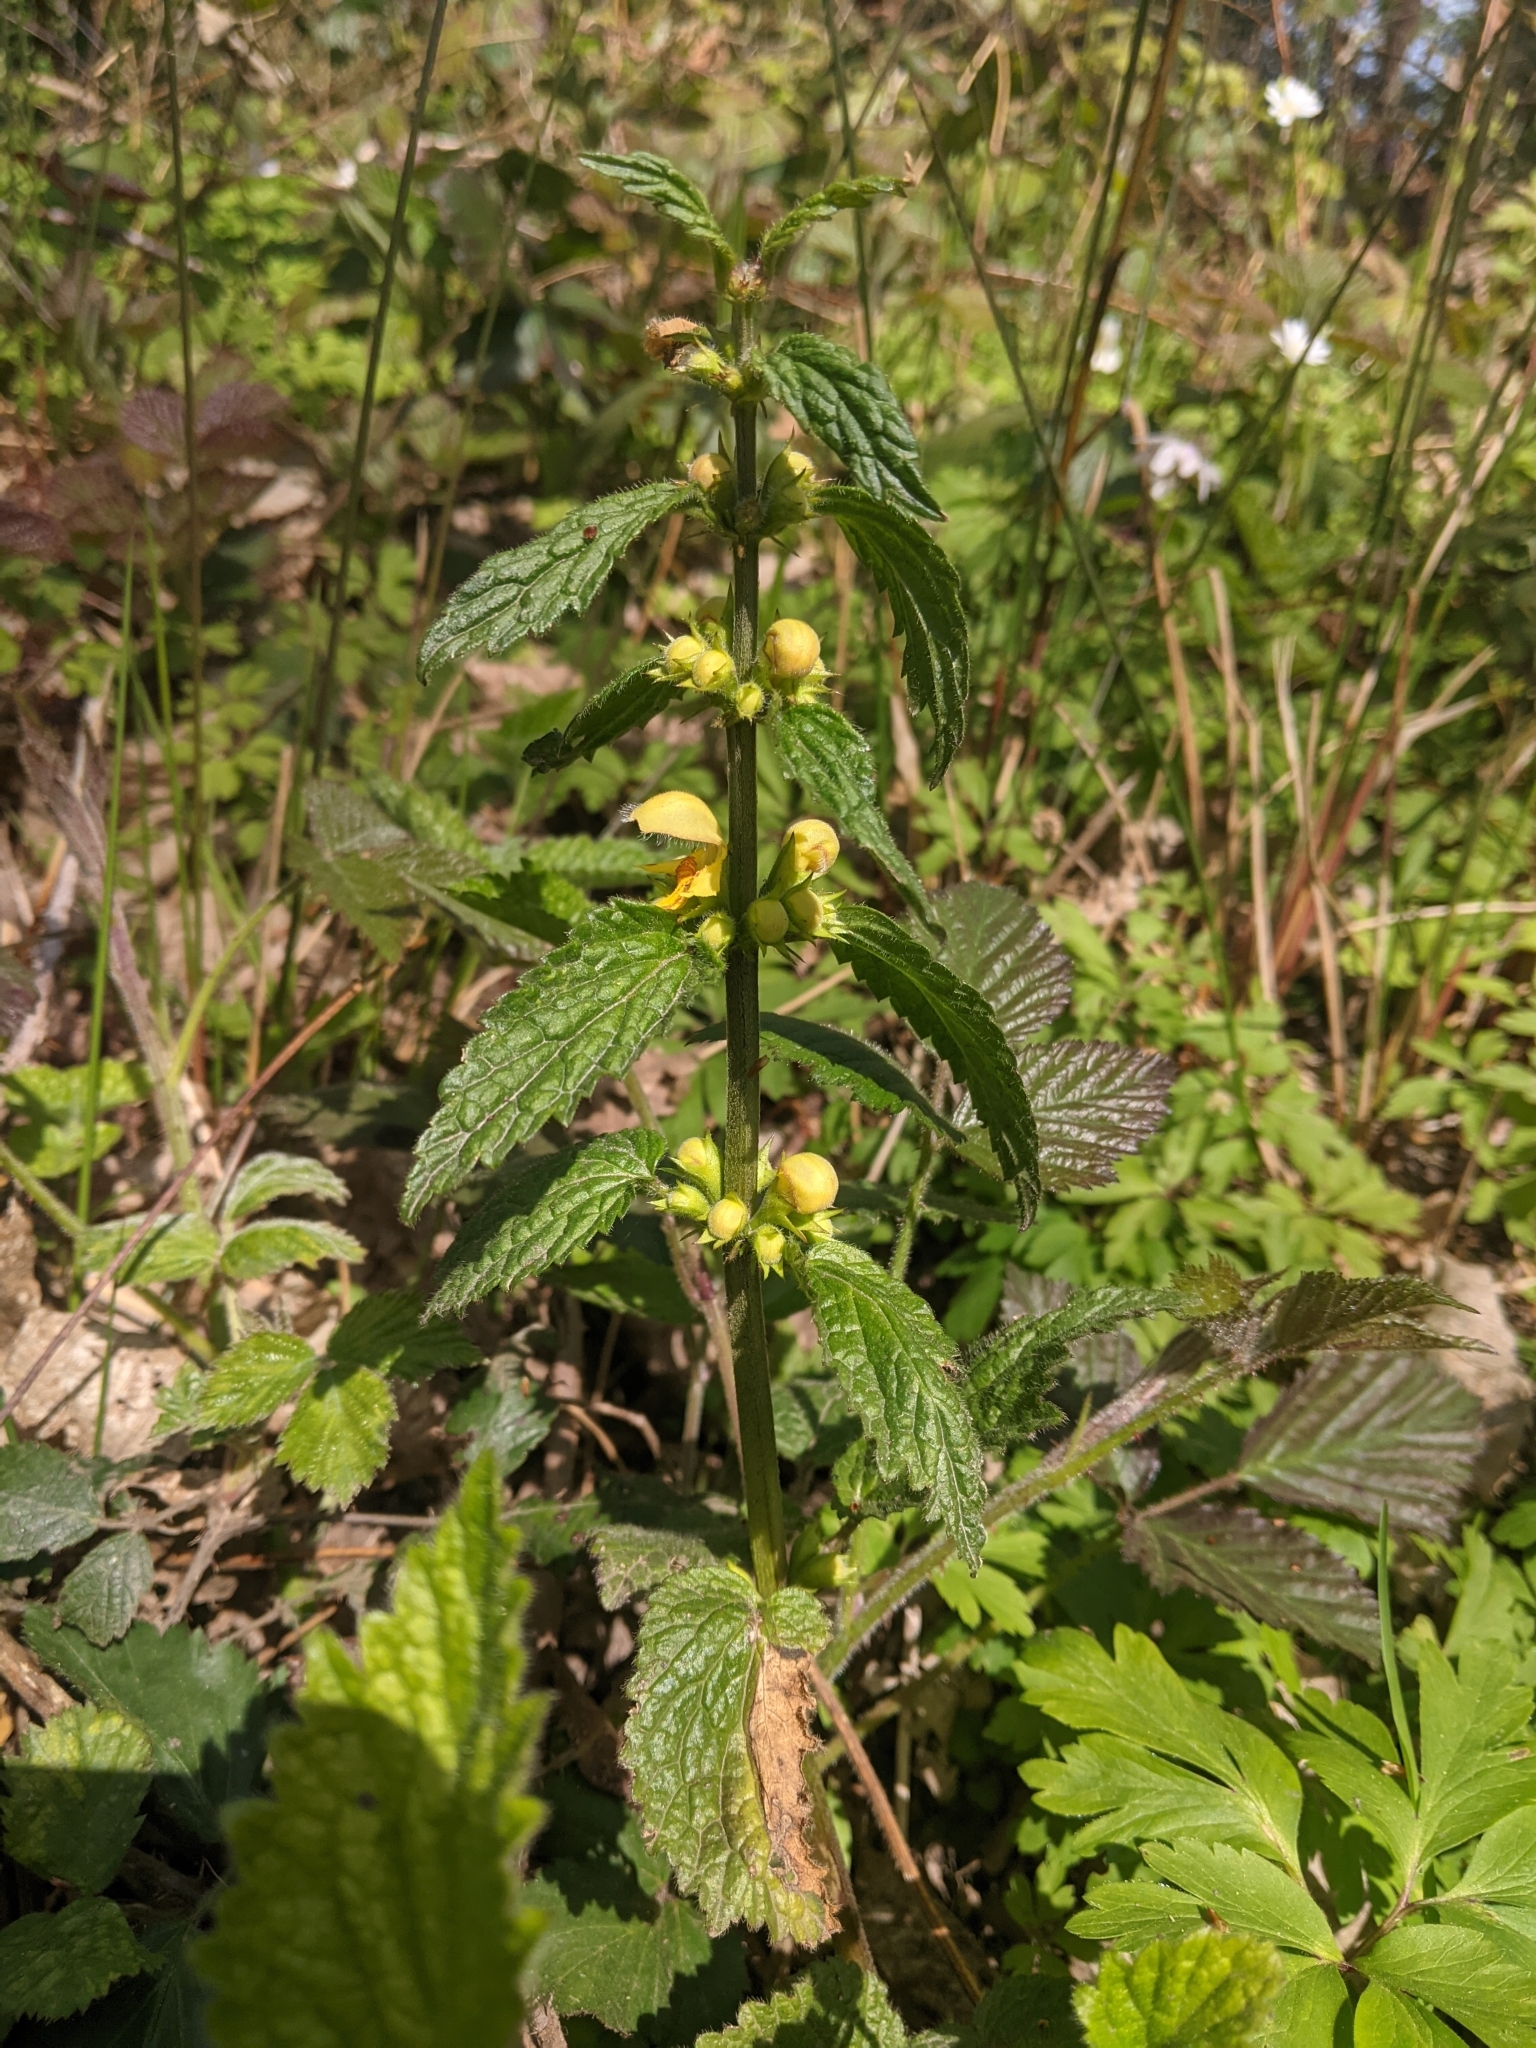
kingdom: Plantae
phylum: Tracheophyta
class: Magnoliopsida
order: Lamiales
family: Lamiaceae
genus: Lamium
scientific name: Lamium galeobdolon
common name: Yellow archangel
